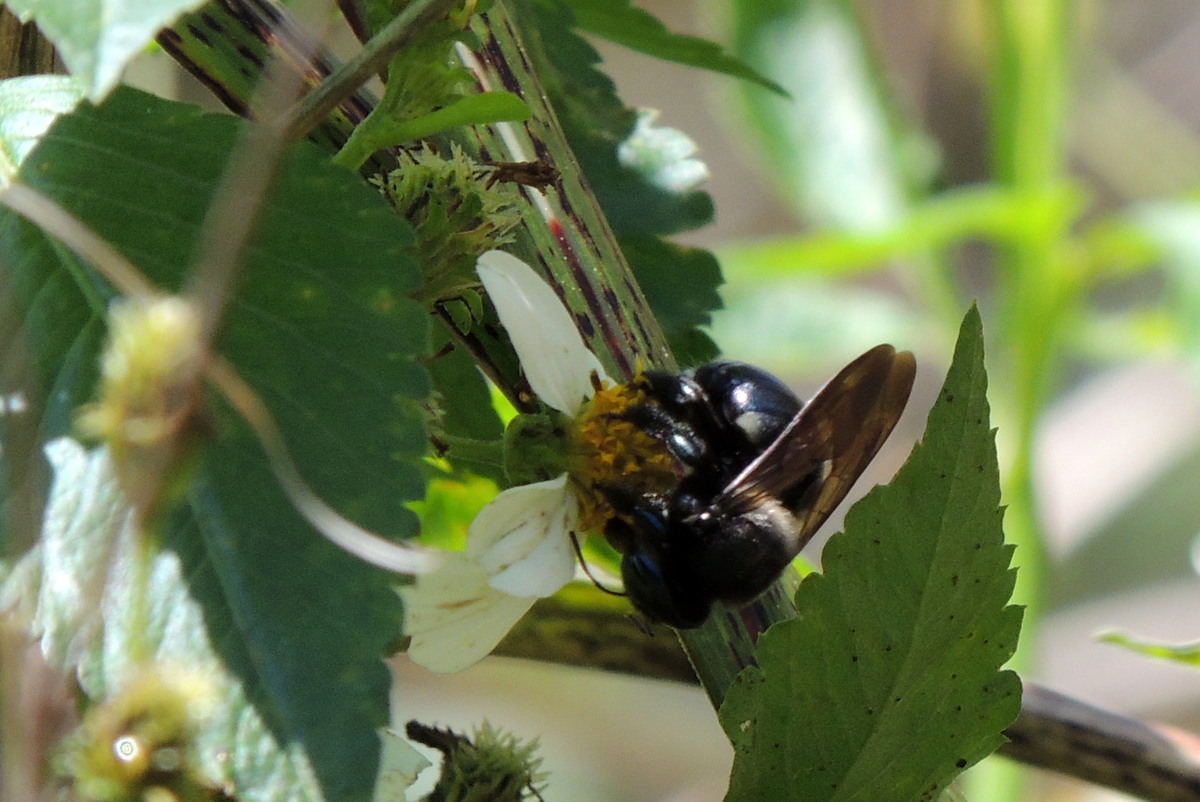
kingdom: Animalia
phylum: Arthropoda
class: Insecta
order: Hymenoptera
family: Apidae
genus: Xylocopa
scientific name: Xylocopa micans
